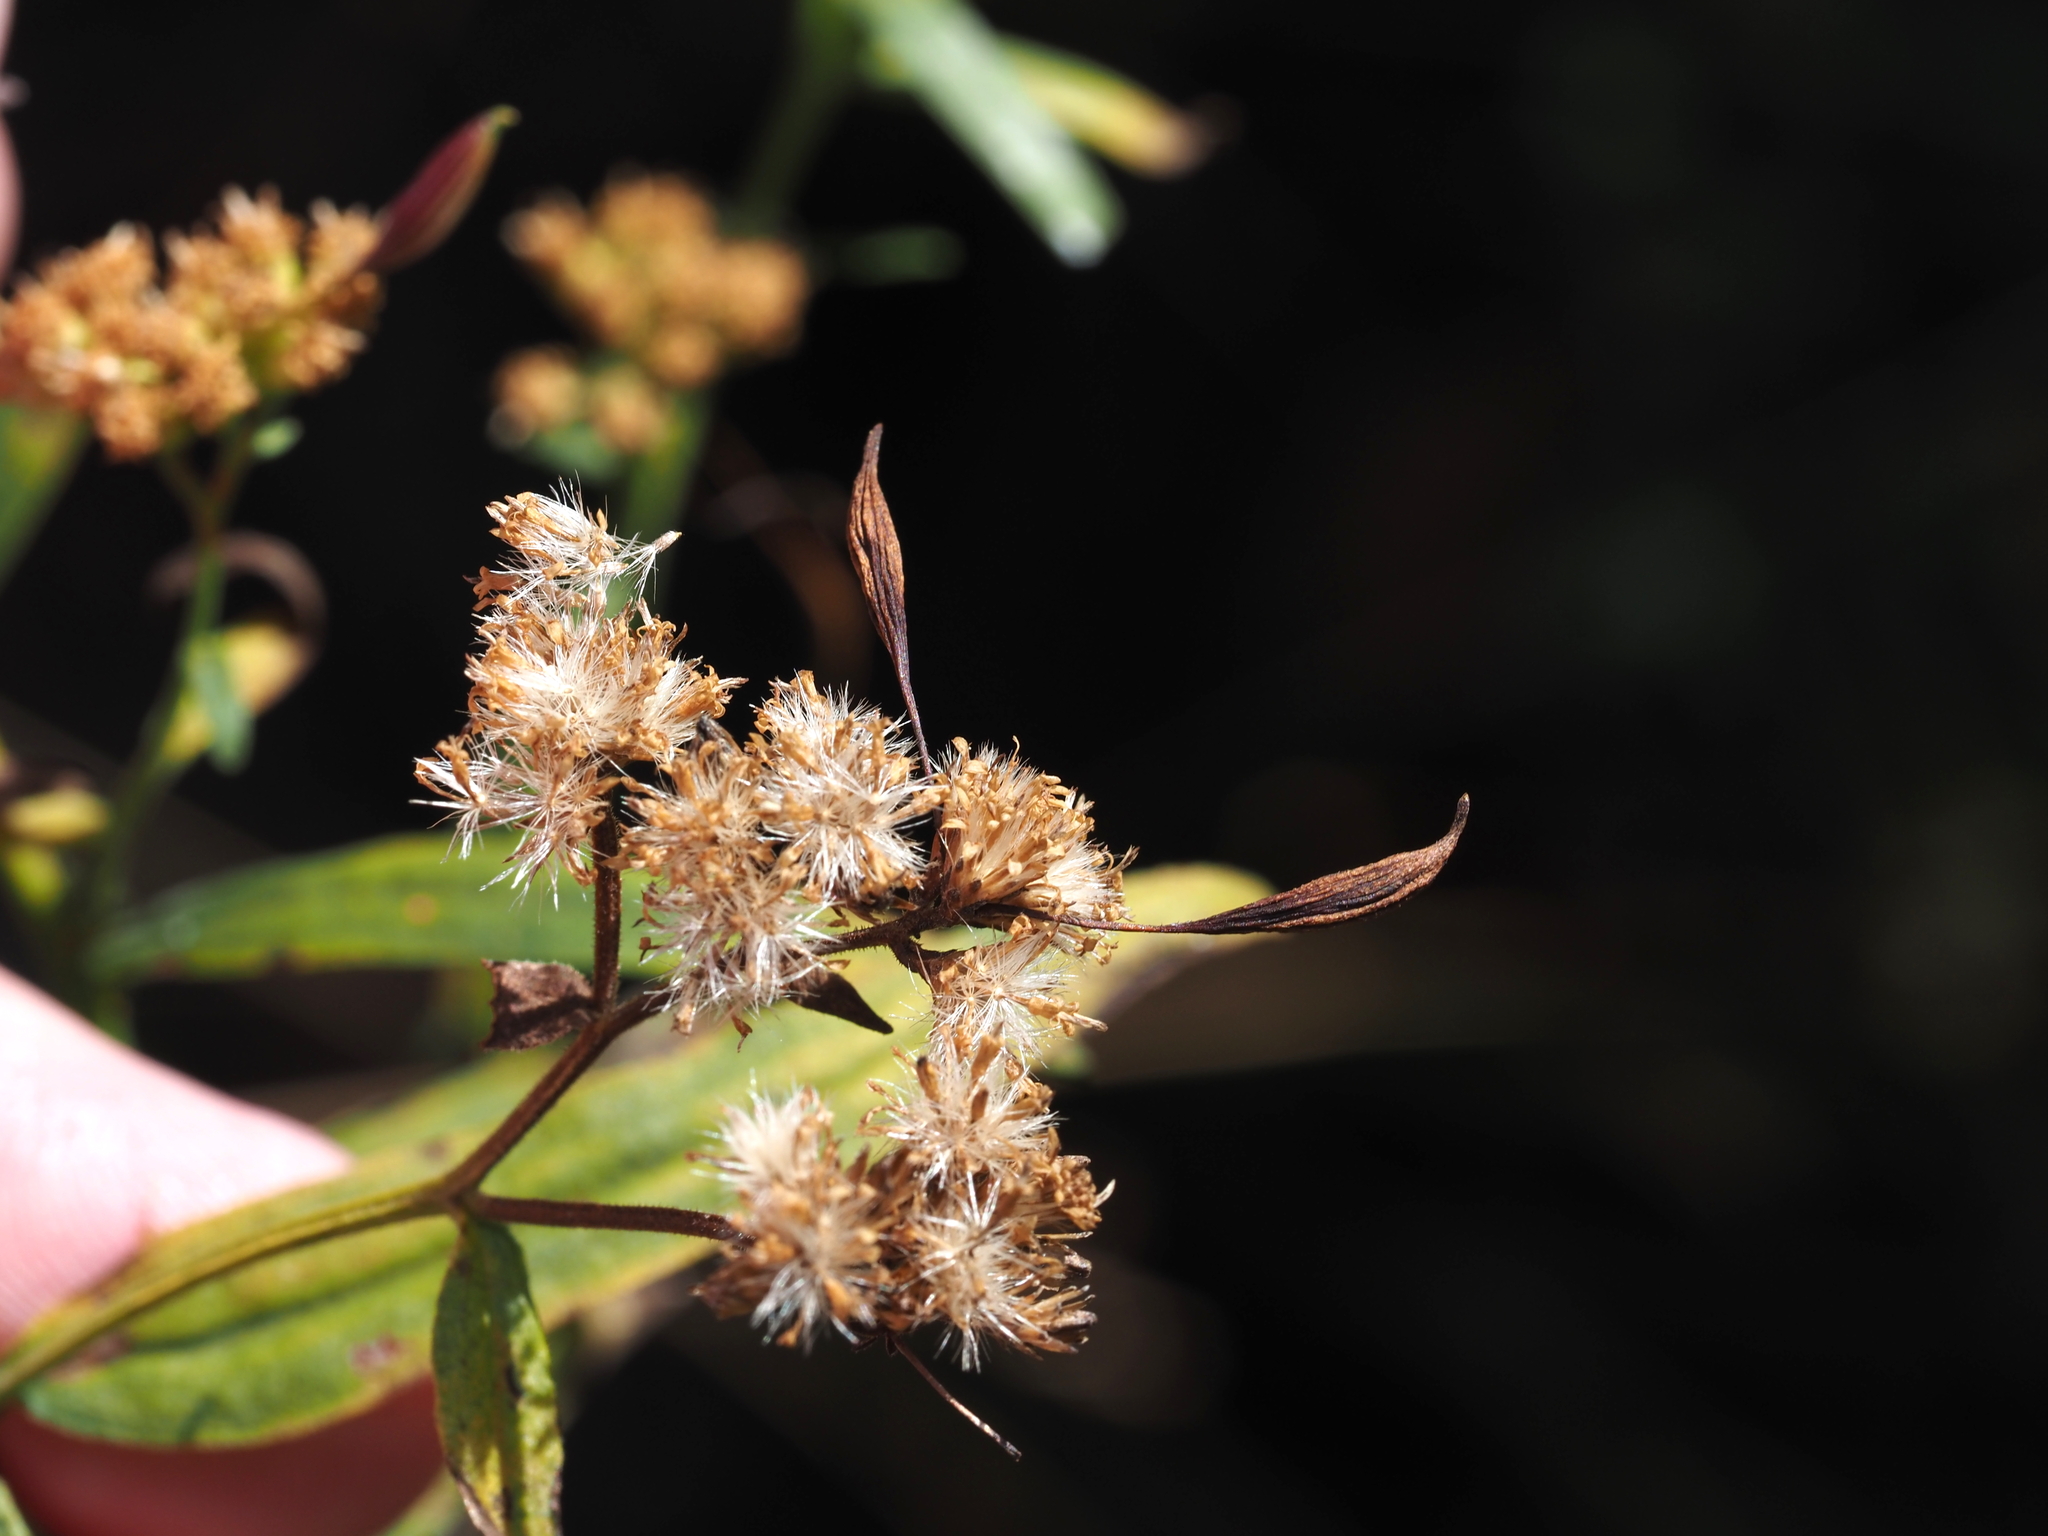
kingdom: Animalia
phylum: Arthropoda
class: Insecta
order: Diptera
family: Cecidomyiidae
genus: Rhopalomyia
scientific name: Rhopalomyia pedicellata
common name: Goldentop pedicellate gall midge
